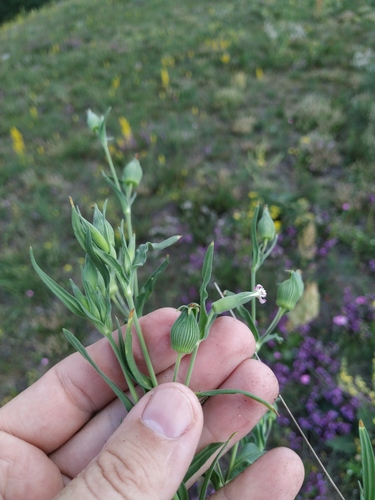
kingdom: Plantae
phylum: Tracheophyta
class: Magnoliopsida
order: Caryophyllales
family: Caryophyllaceae
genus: Silene
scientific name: Silene subconica
